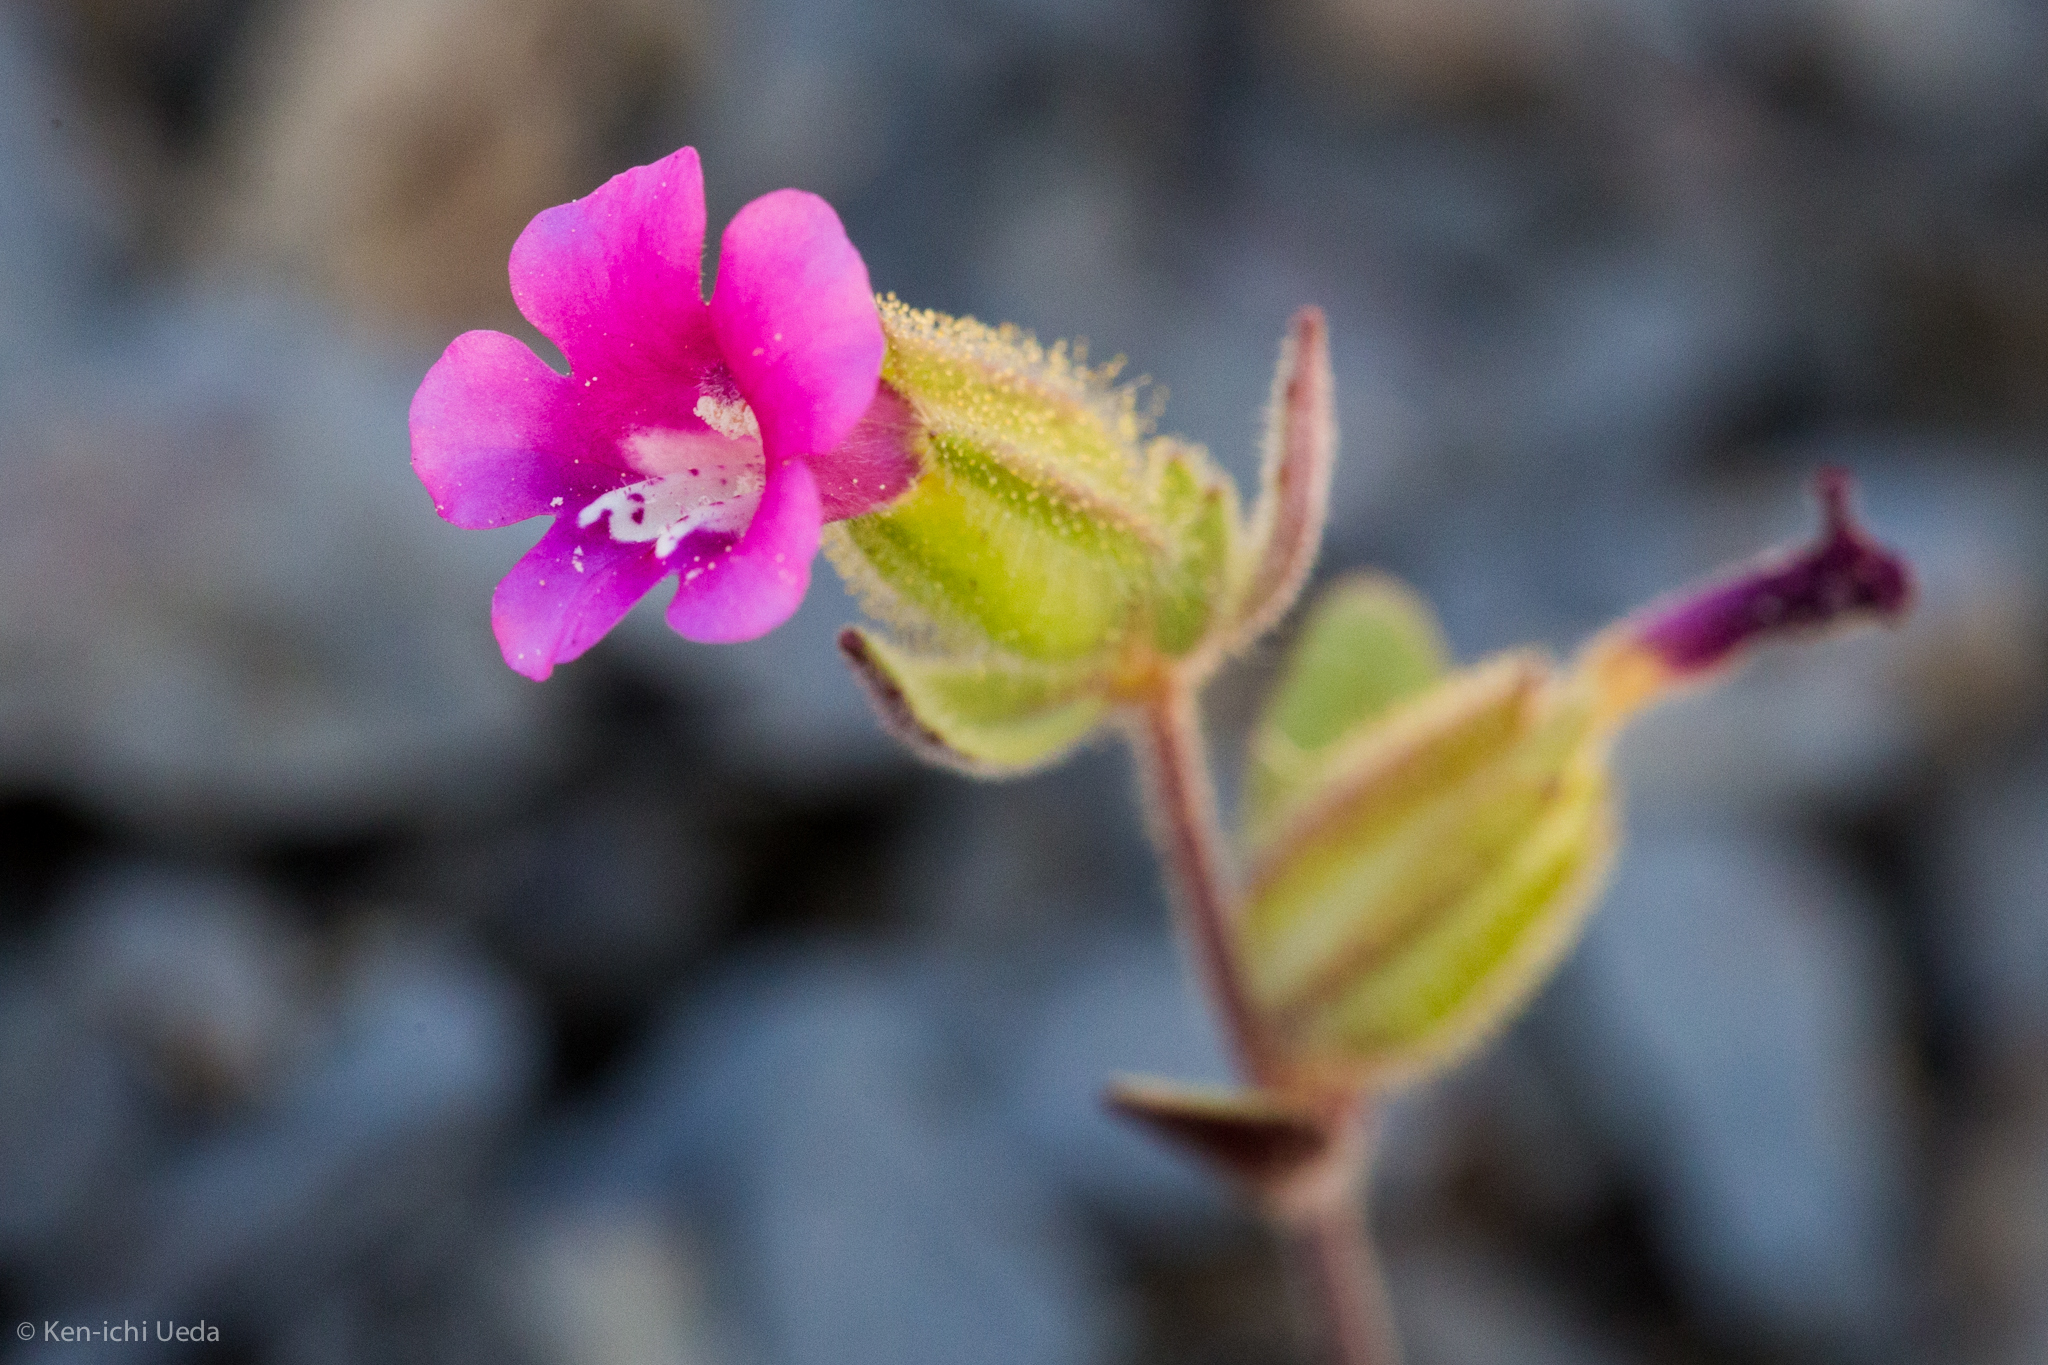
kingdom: Plantae
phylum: Tracheophyta
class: Magnoliopsida
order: Lamiales
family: Phrymaceae
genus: Diplacus
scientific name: Diplacus bolanderi
